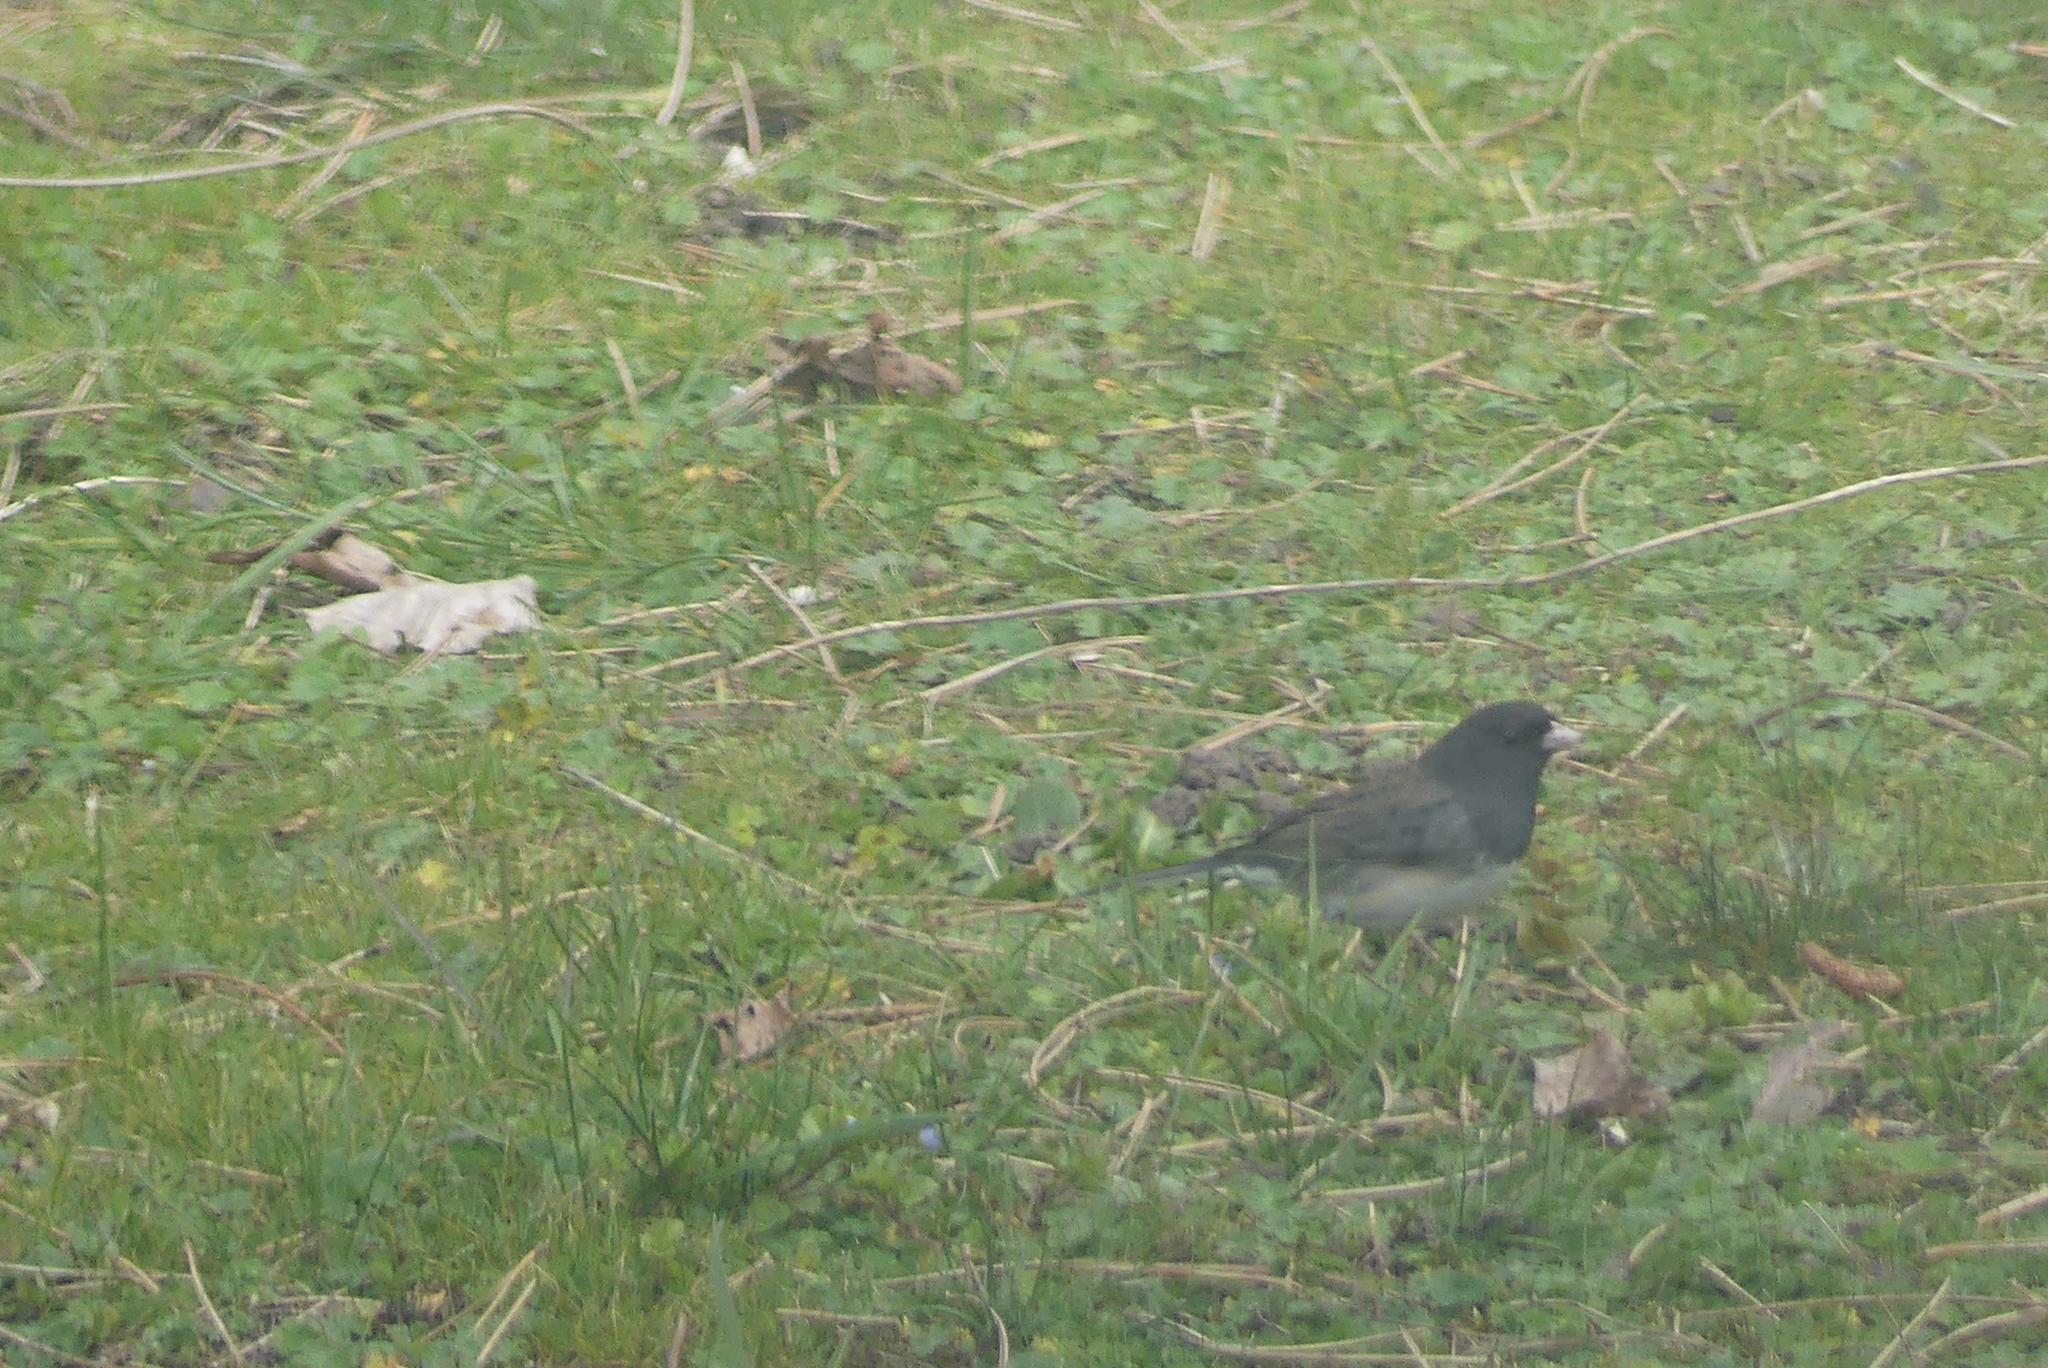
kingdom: Animalia
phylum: Chordata
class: Aves
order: Passeriformes
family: Passerellidae
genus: Junco
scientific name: Junco hyemalis
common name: Dark-eyed junco
